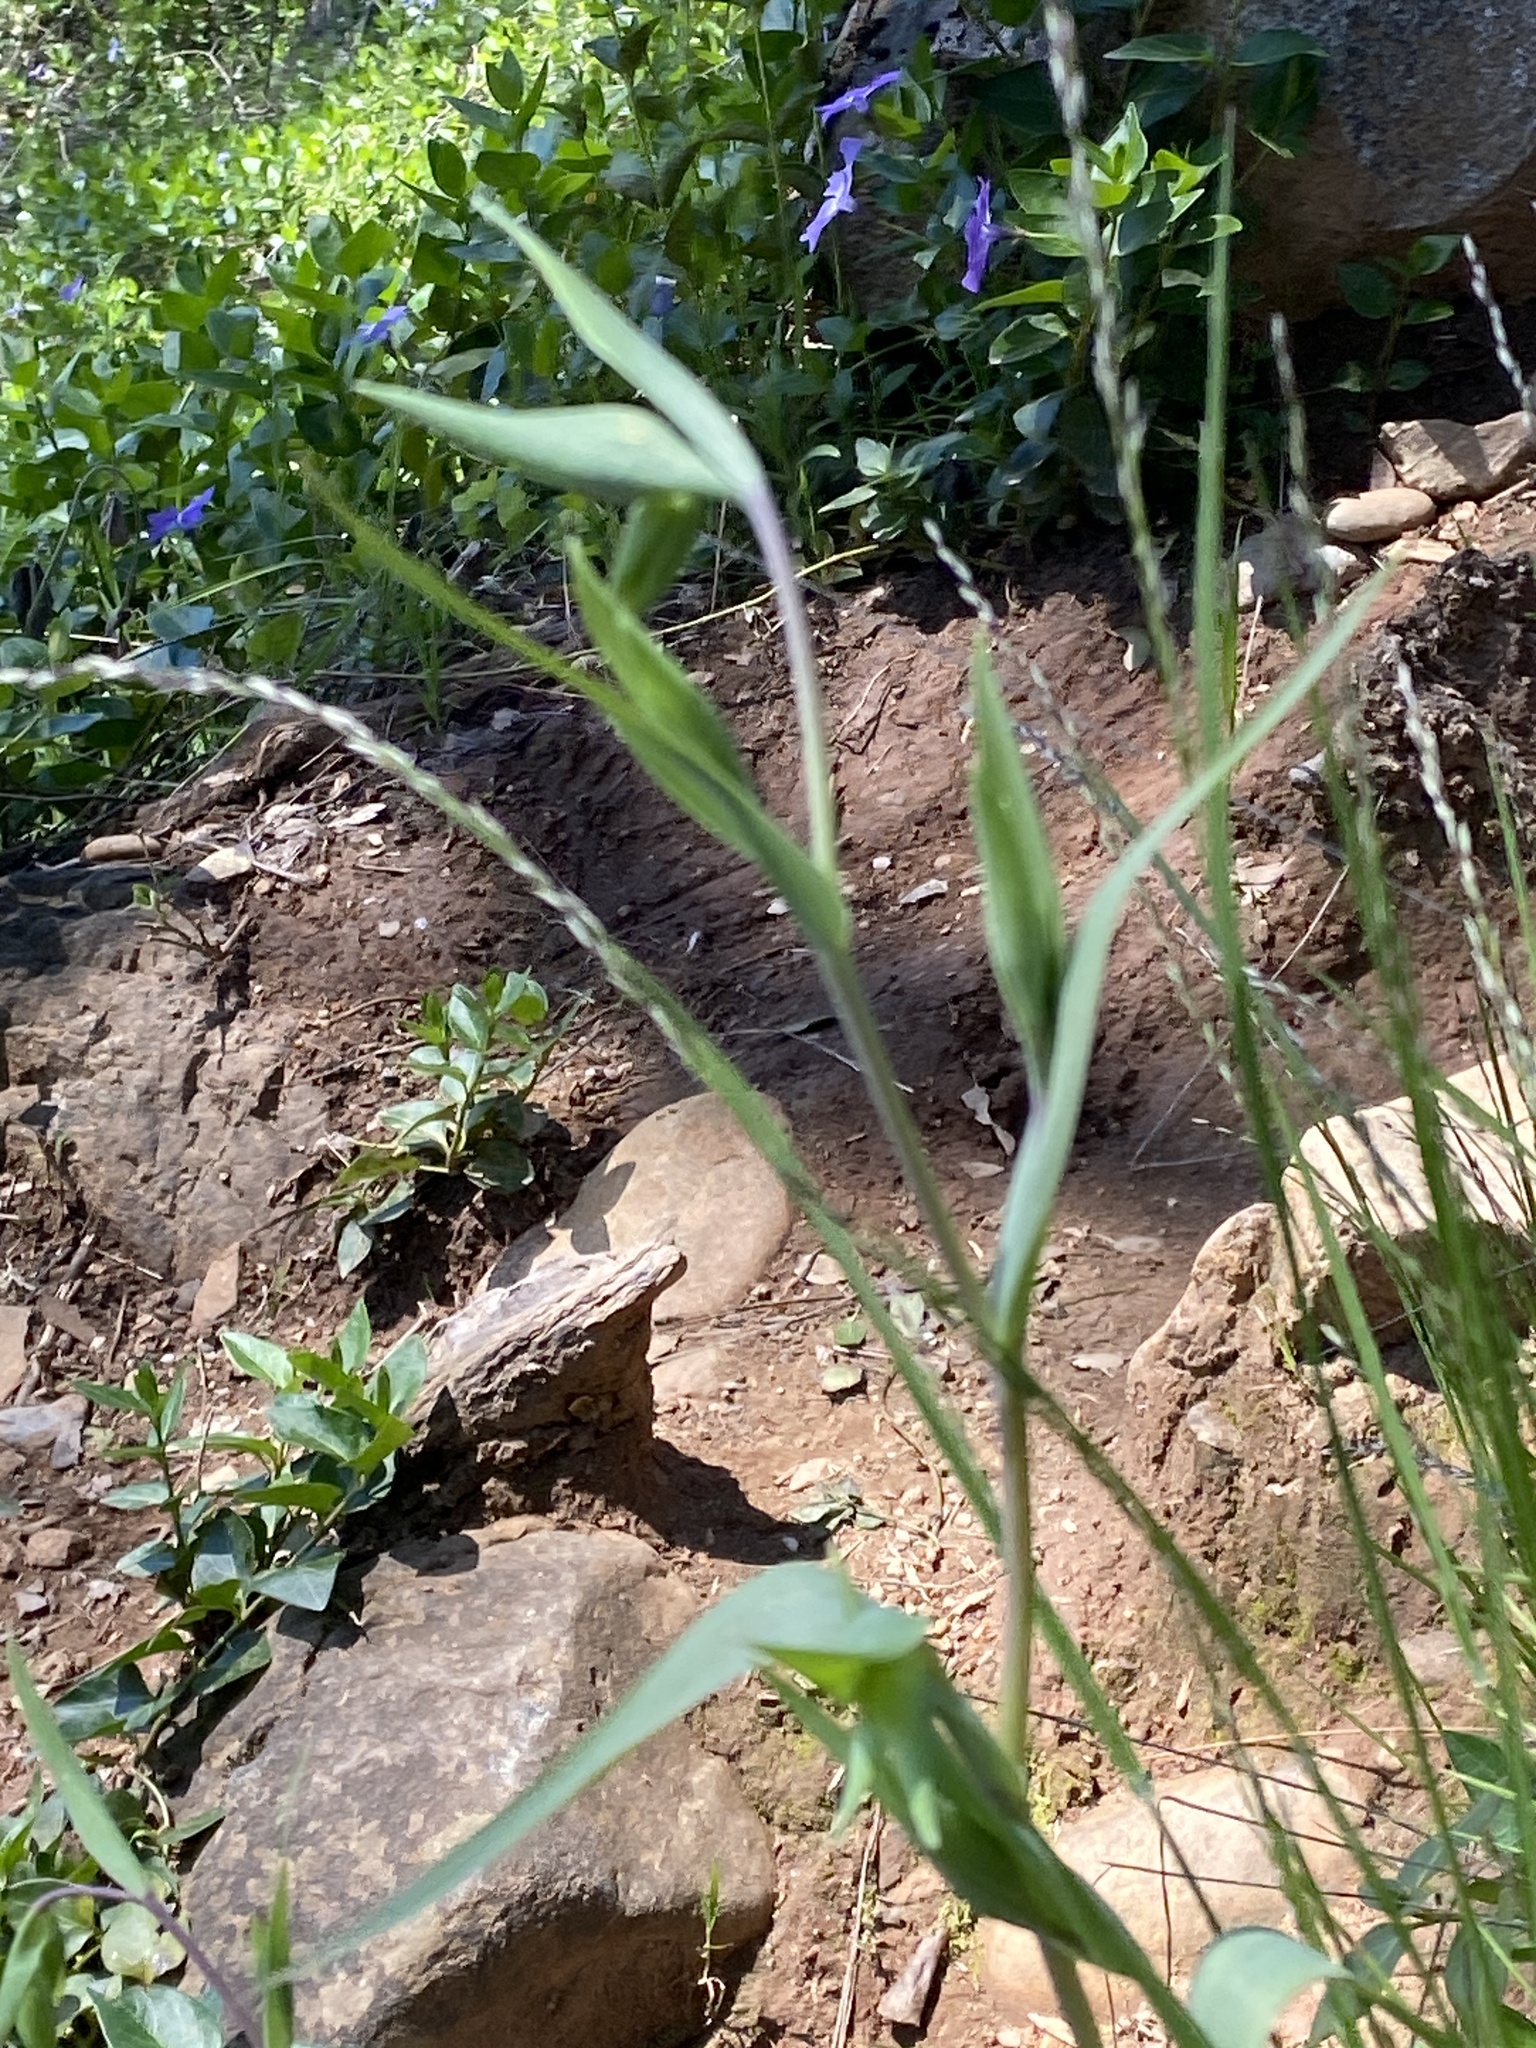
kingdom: Plantae
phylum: Tracheophyta
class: Liliopsida
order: Liliales
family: Liliaceae
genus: Calochortus
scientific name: Calochortus albus
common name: Fairy-lantern
